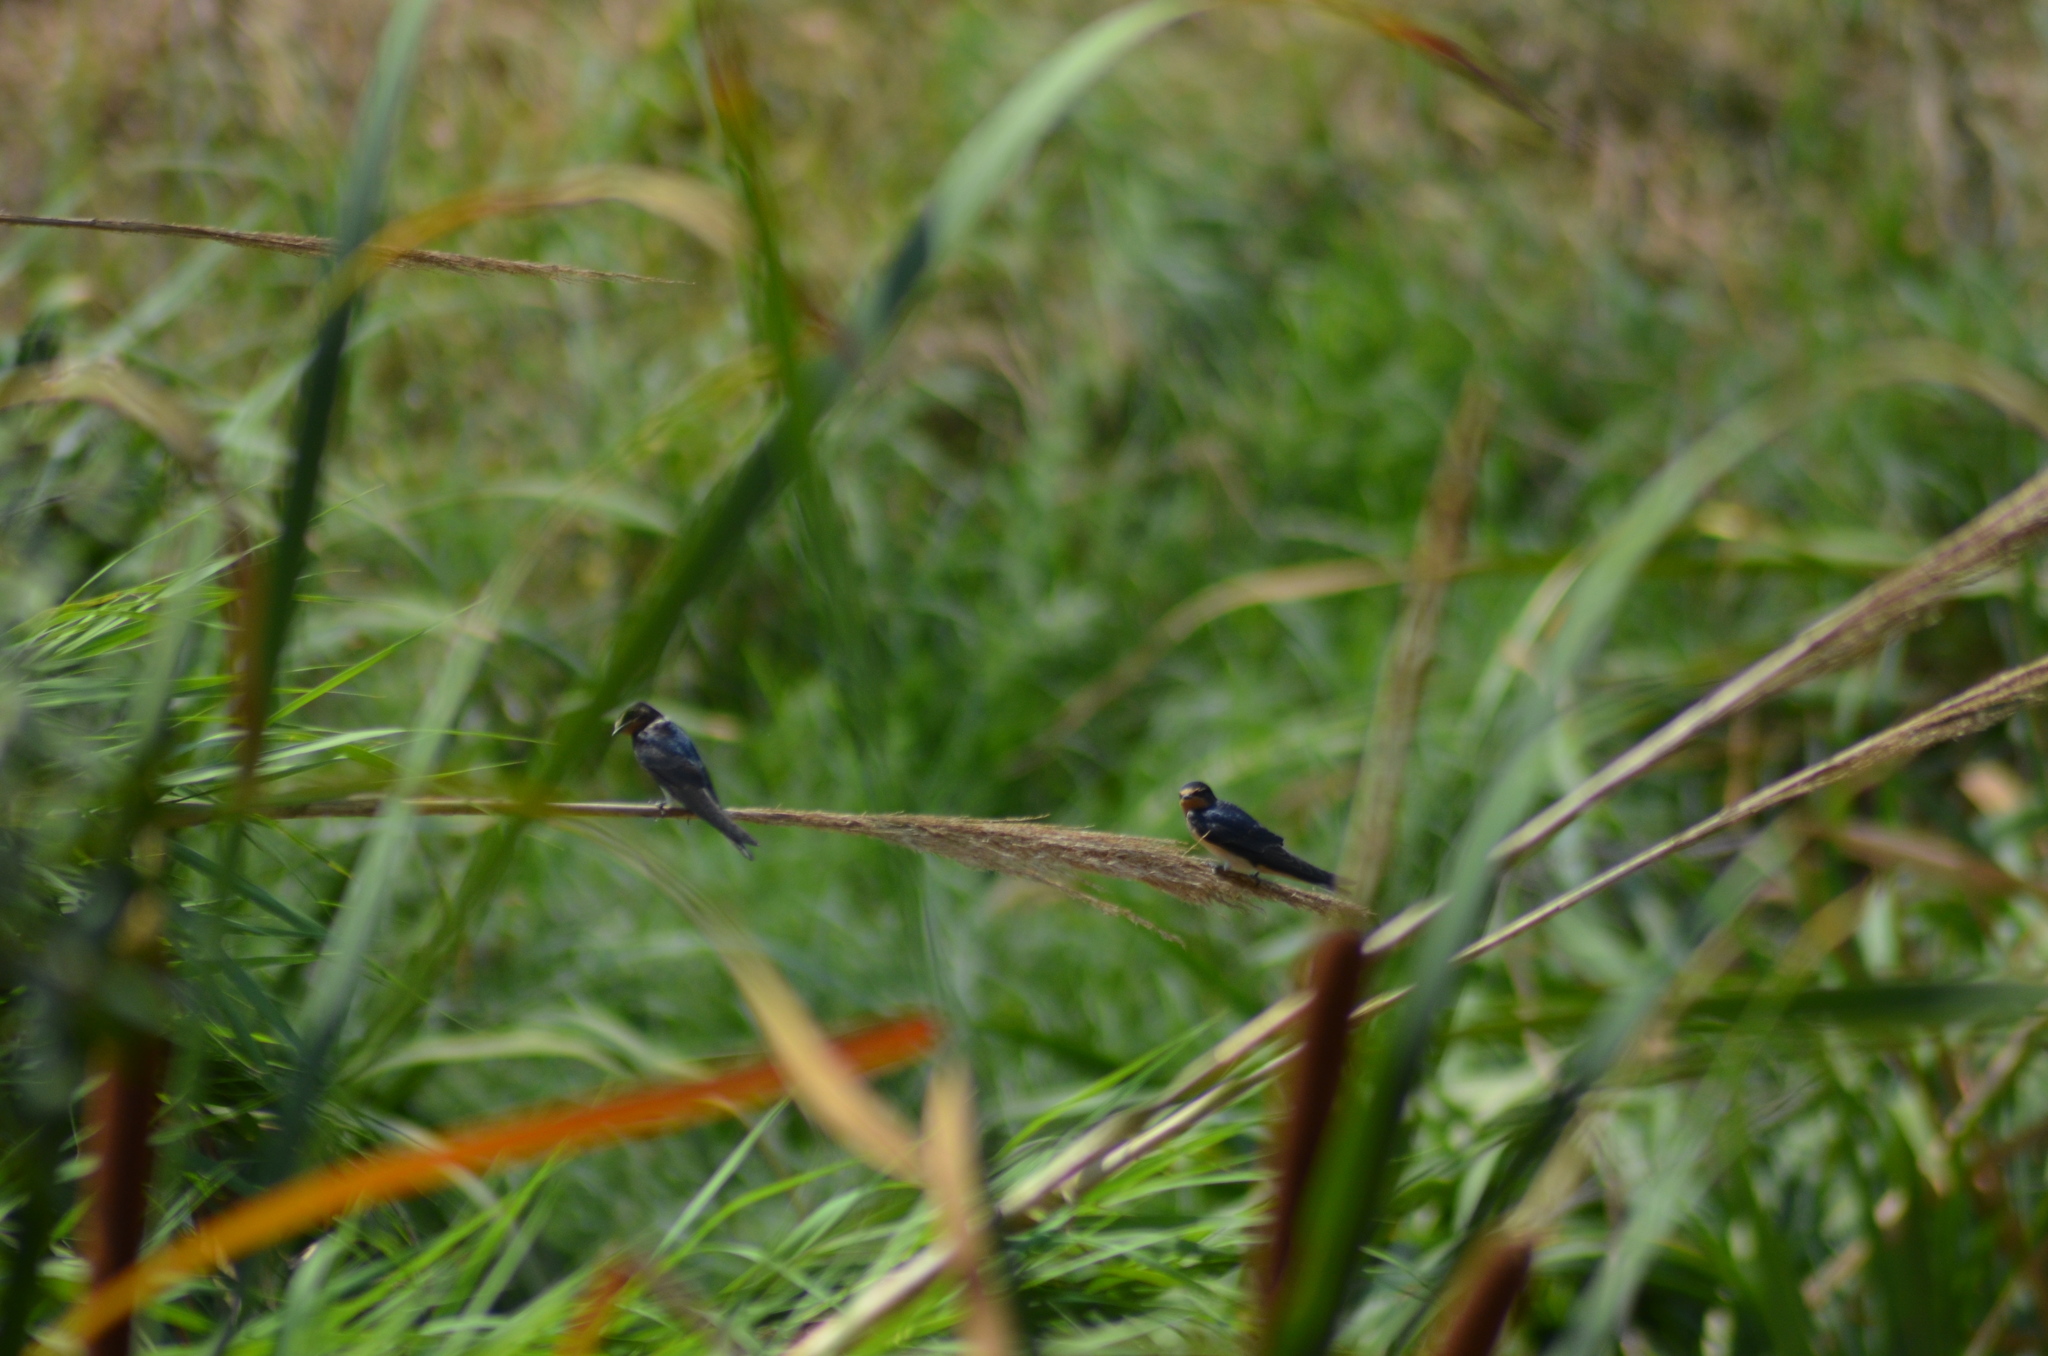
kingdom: Animalia
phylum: Chordata
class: Aves
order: Passeriformes
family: Hirundinidae
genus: Hirundo
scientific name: Hirundo rustica
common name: Barn swallow
